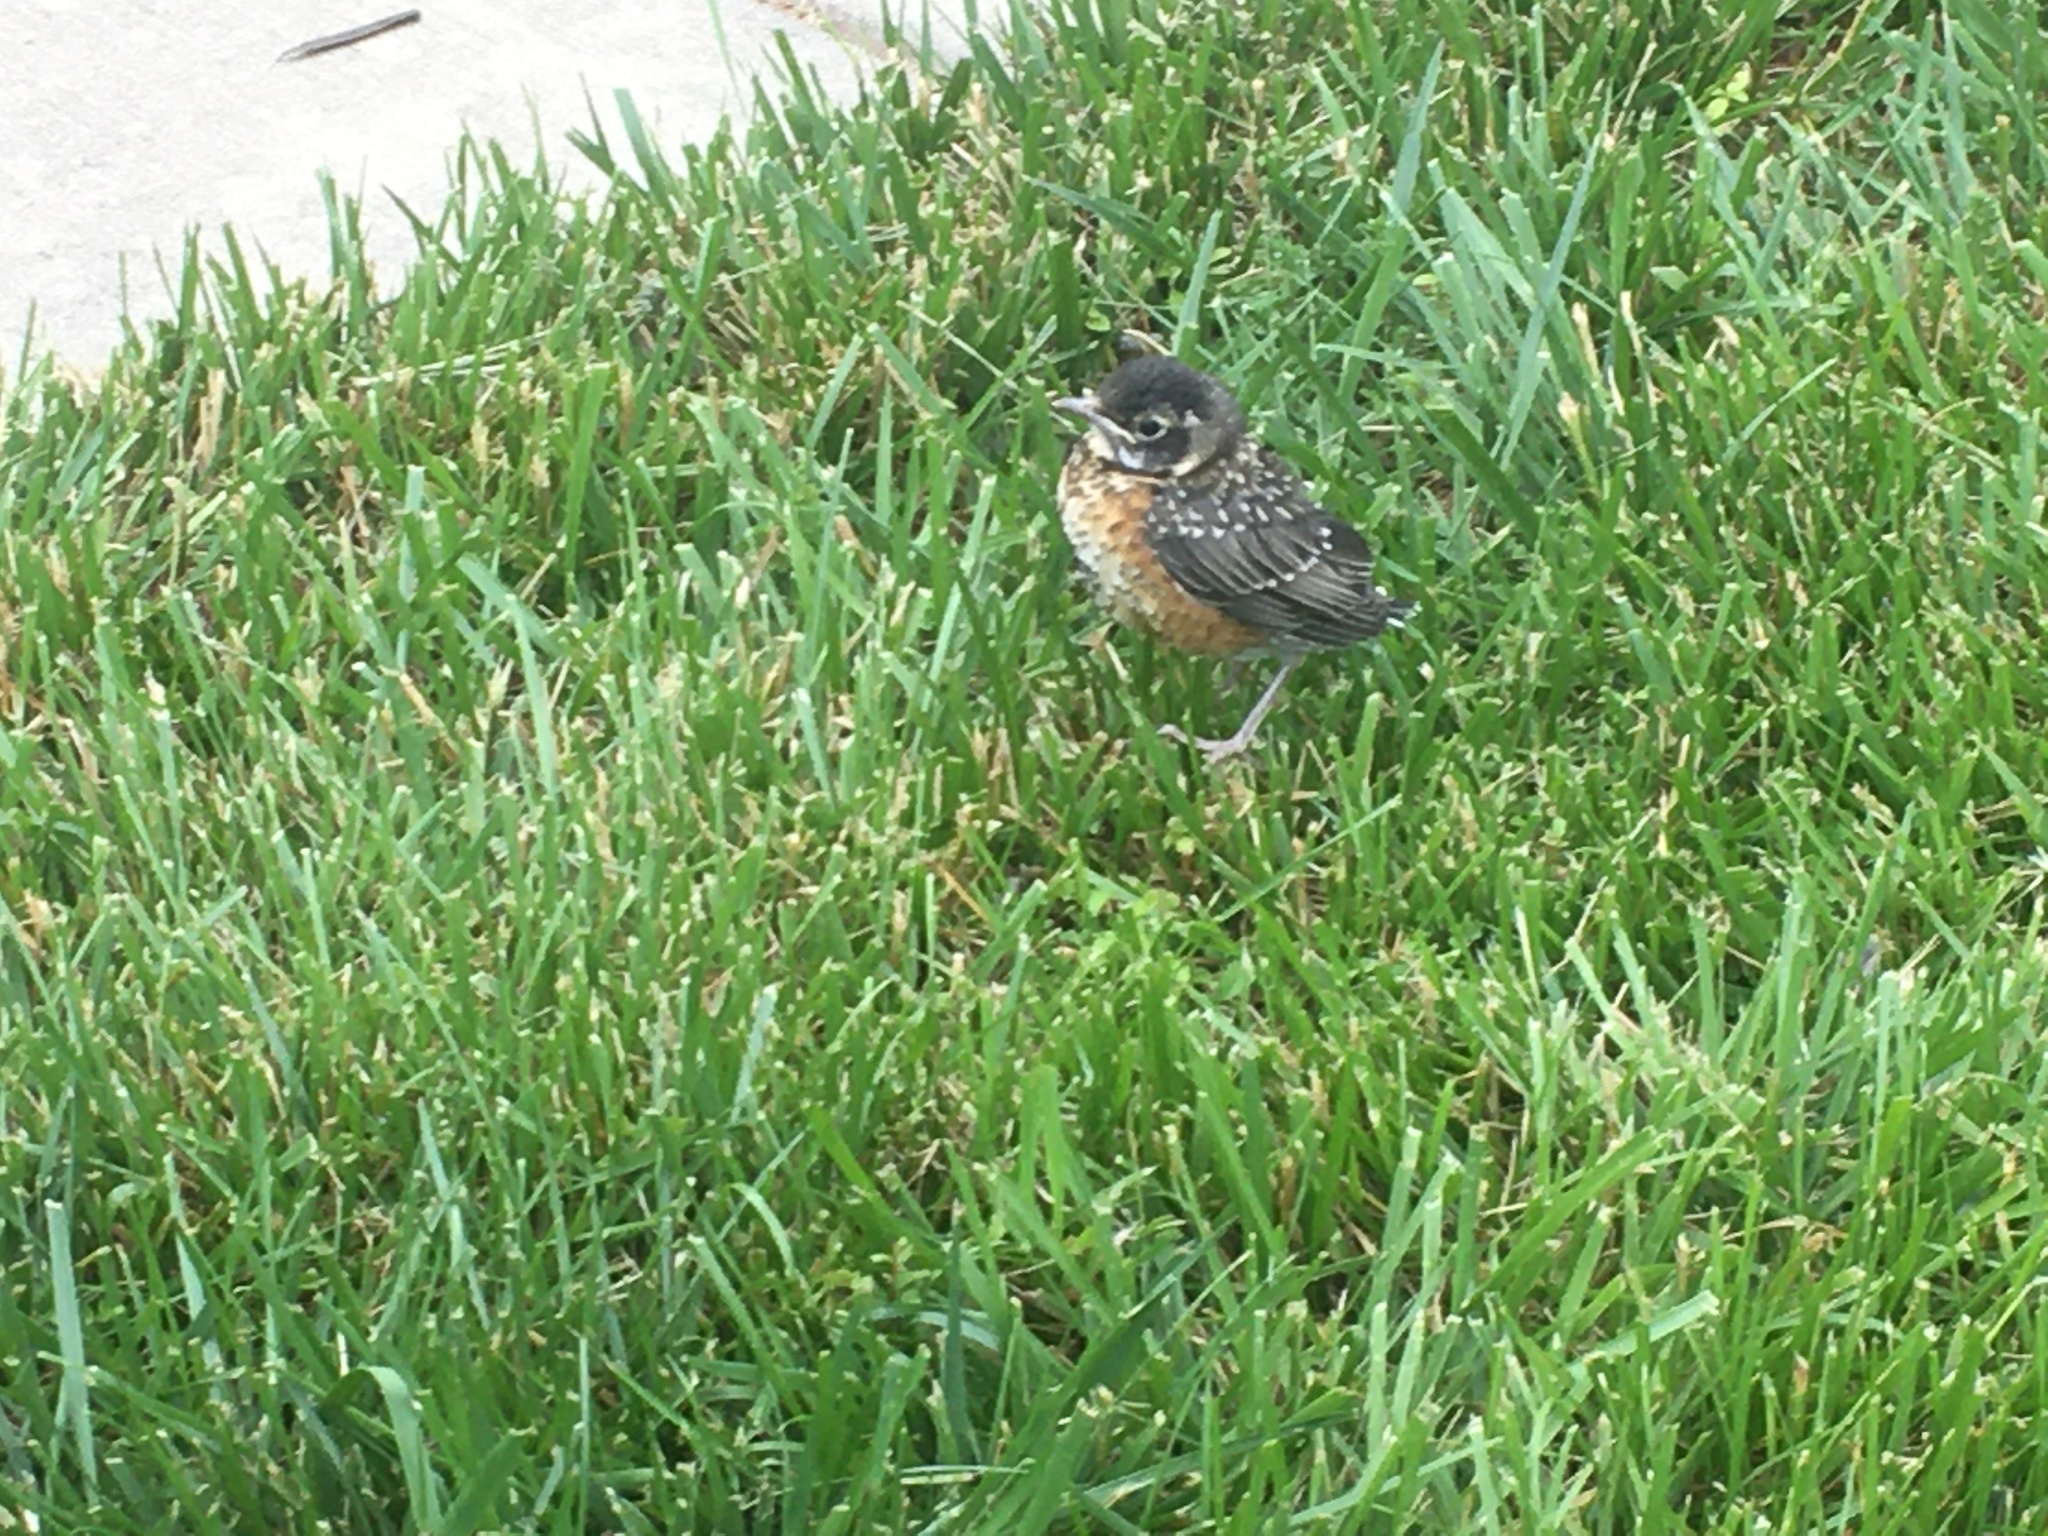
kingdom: Animalia
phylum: Chordata
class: Aves
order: Passeriformes
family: Turdidae
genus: Turdus
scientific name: Turdus migratorius
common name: American robin
